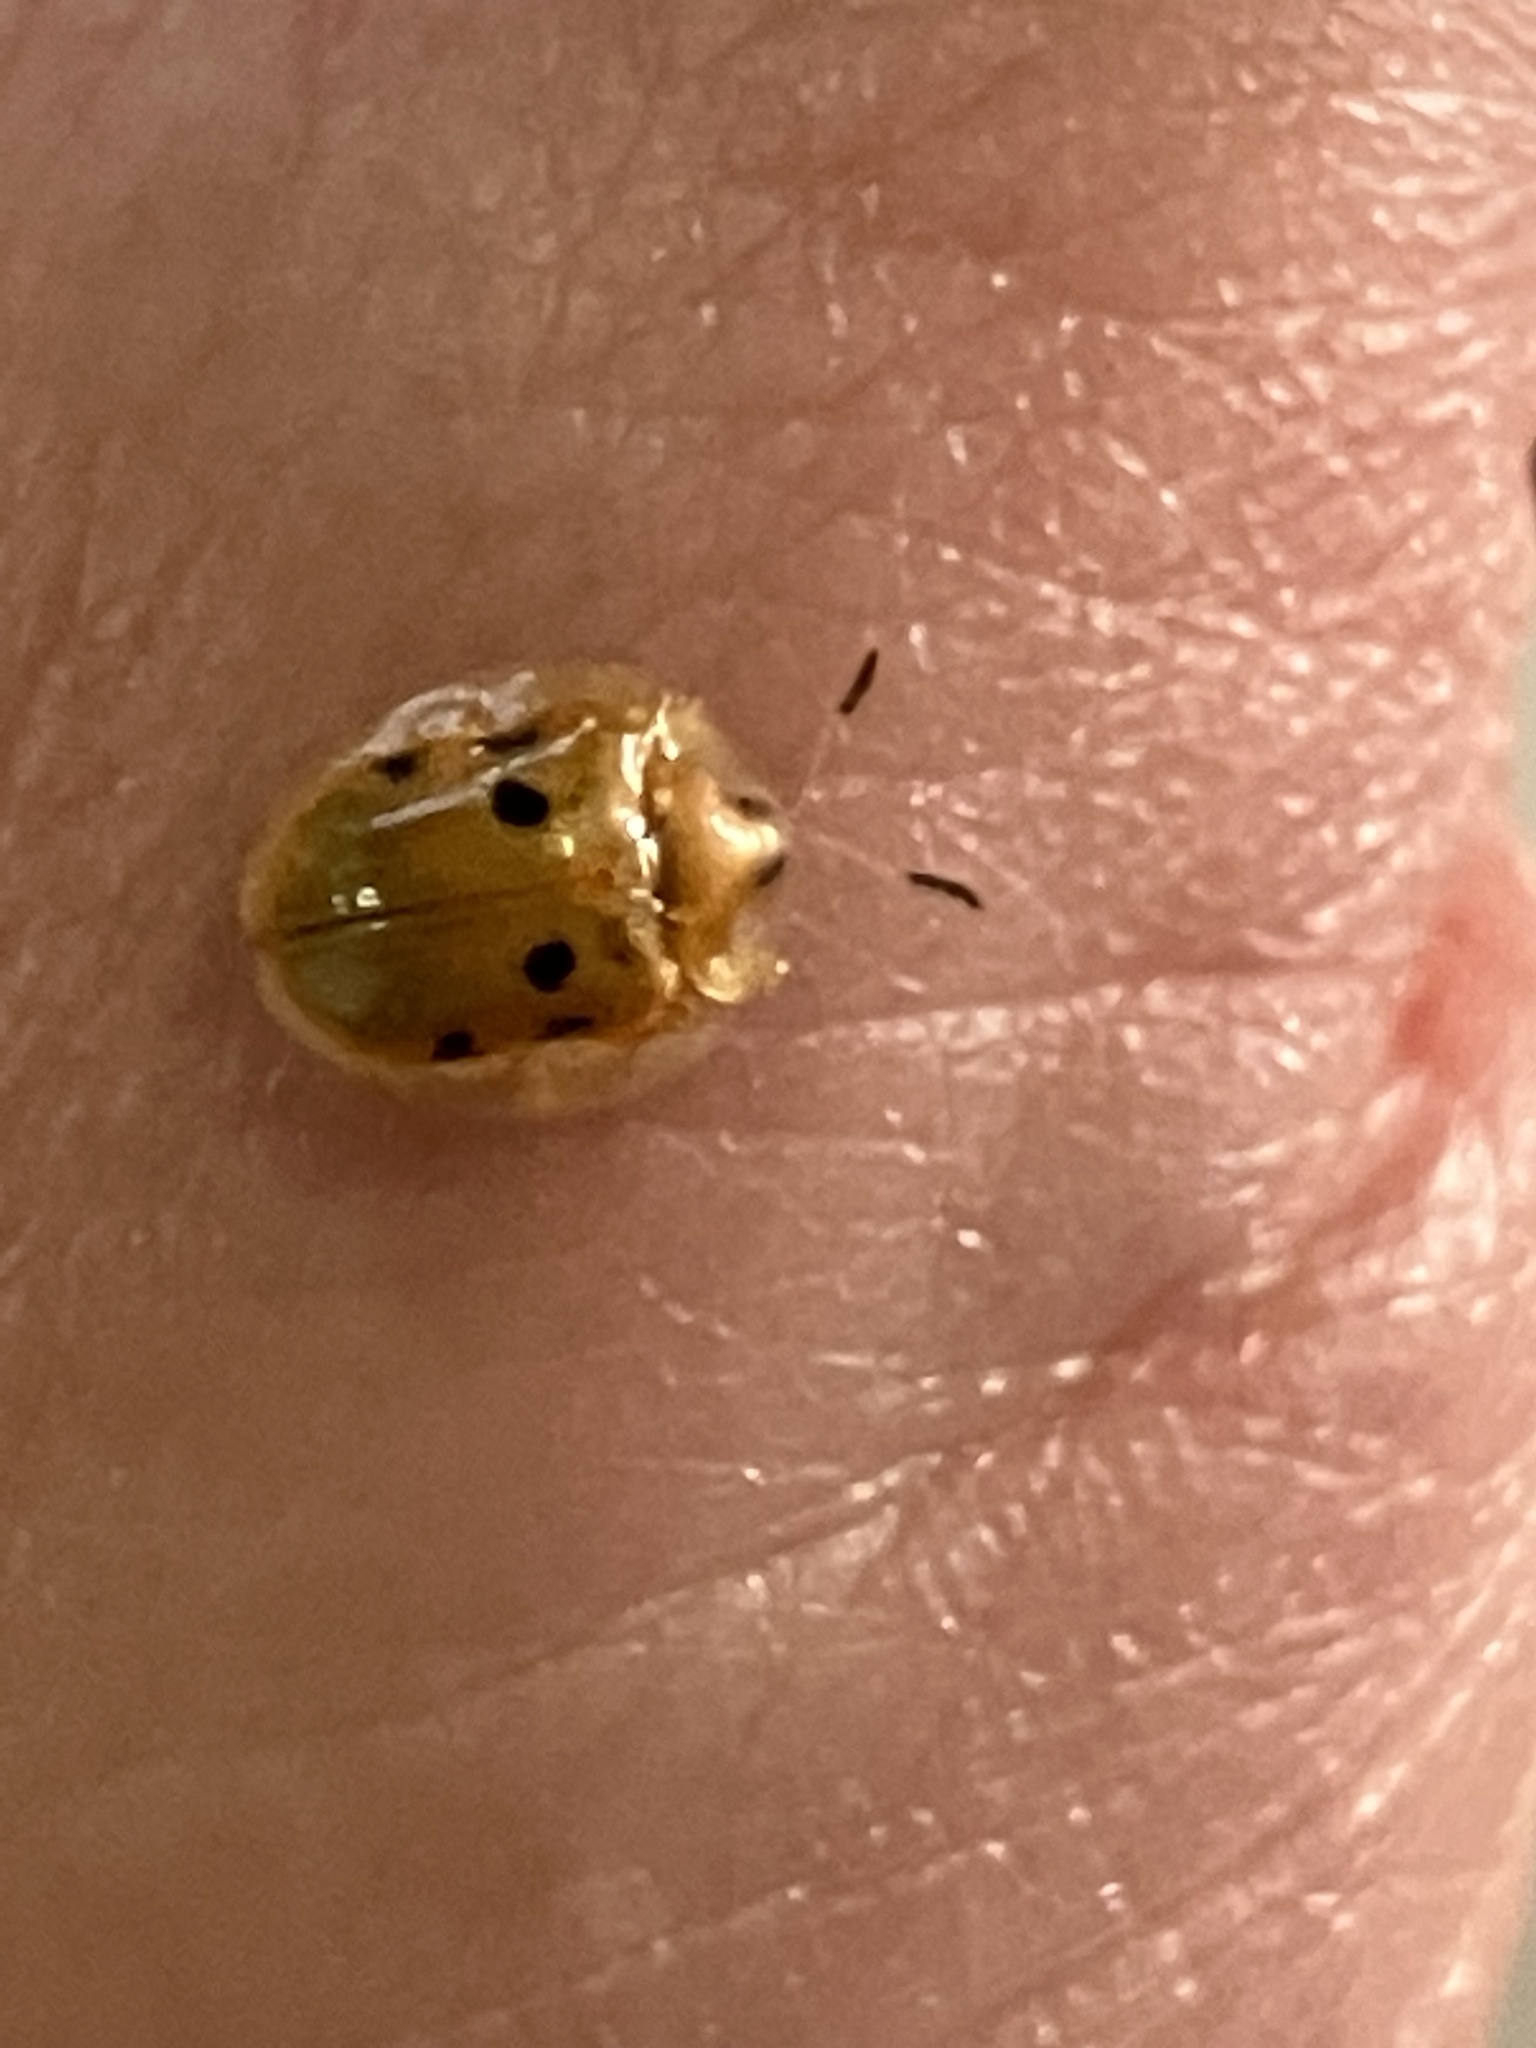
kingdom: Animalia
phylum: Arthropoda
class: Insecta
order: Coleoptera
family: Chrysomelidae
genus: Charidotella
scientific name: Charidotella sexpunctata
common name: Golden tortoise beetle
